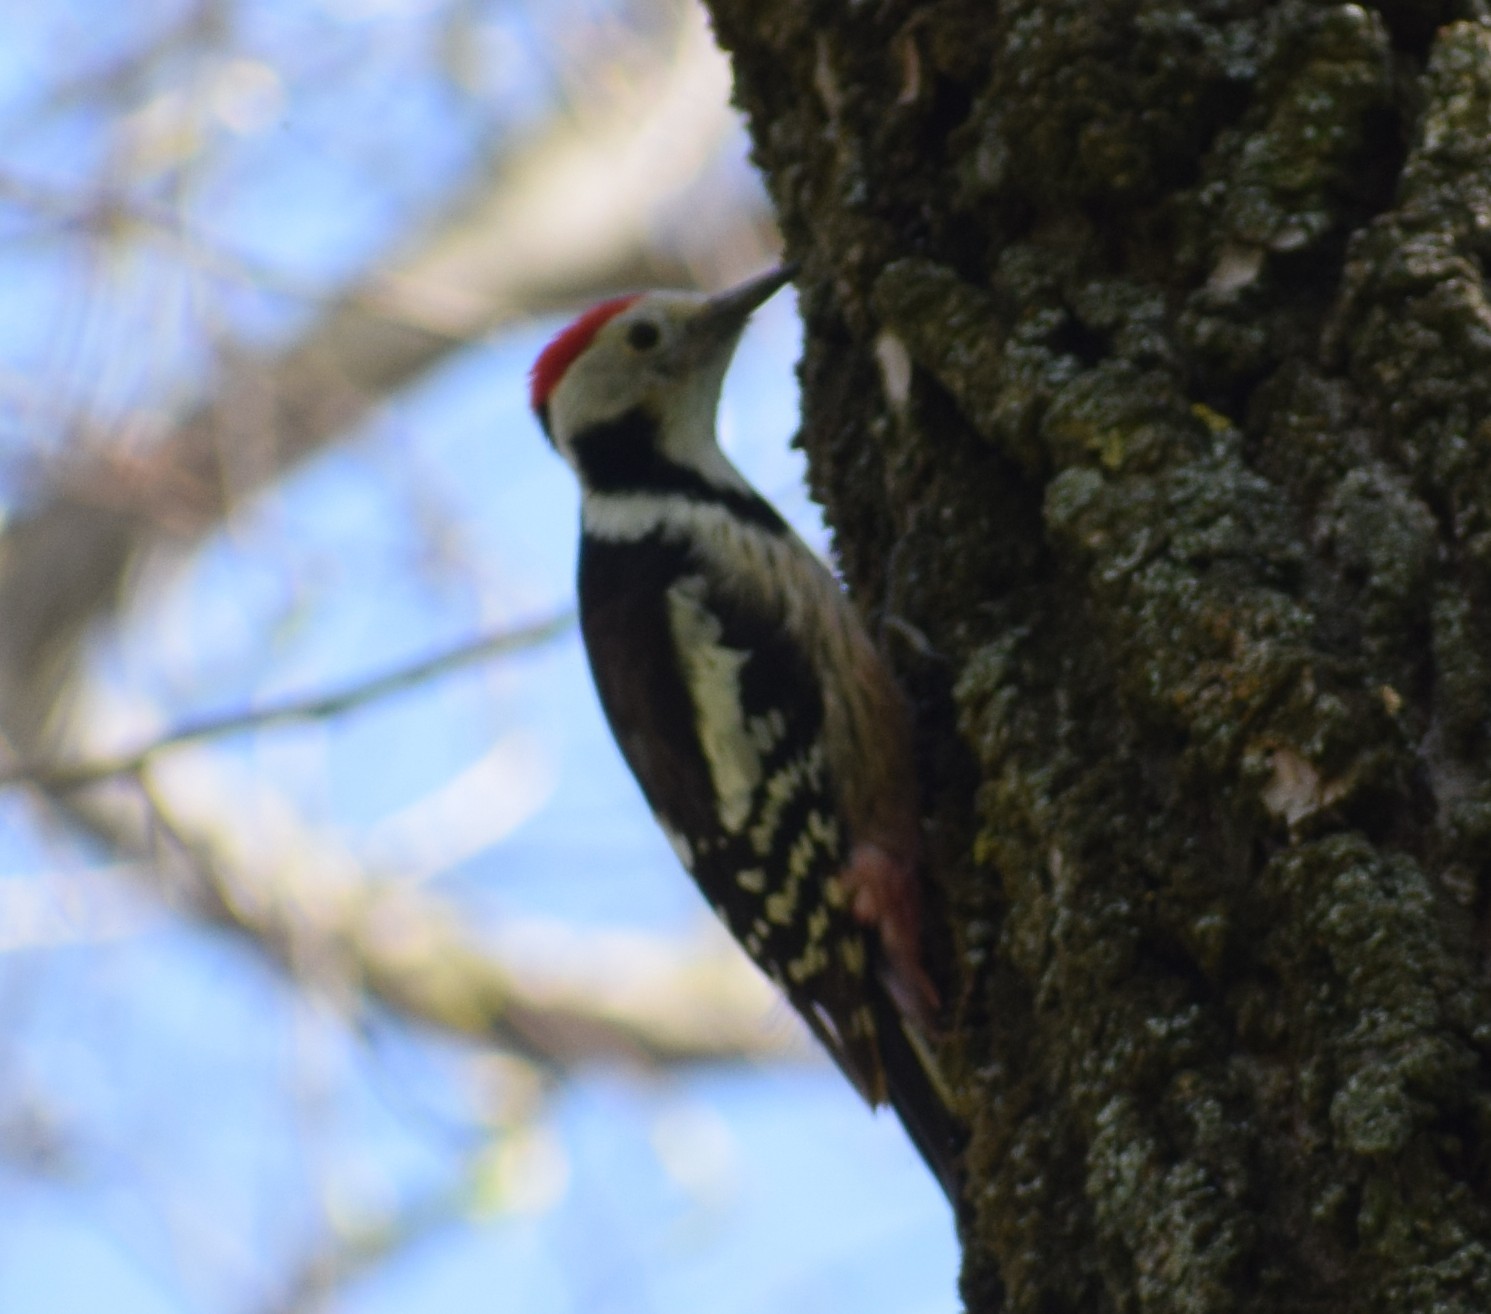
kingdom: Animalia
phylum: Chordata
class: Aves
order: Piciformes
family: Picidae
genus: Dendrocoptes
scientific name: Dendrocoptes medius
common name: Middle spotted woodpecker
